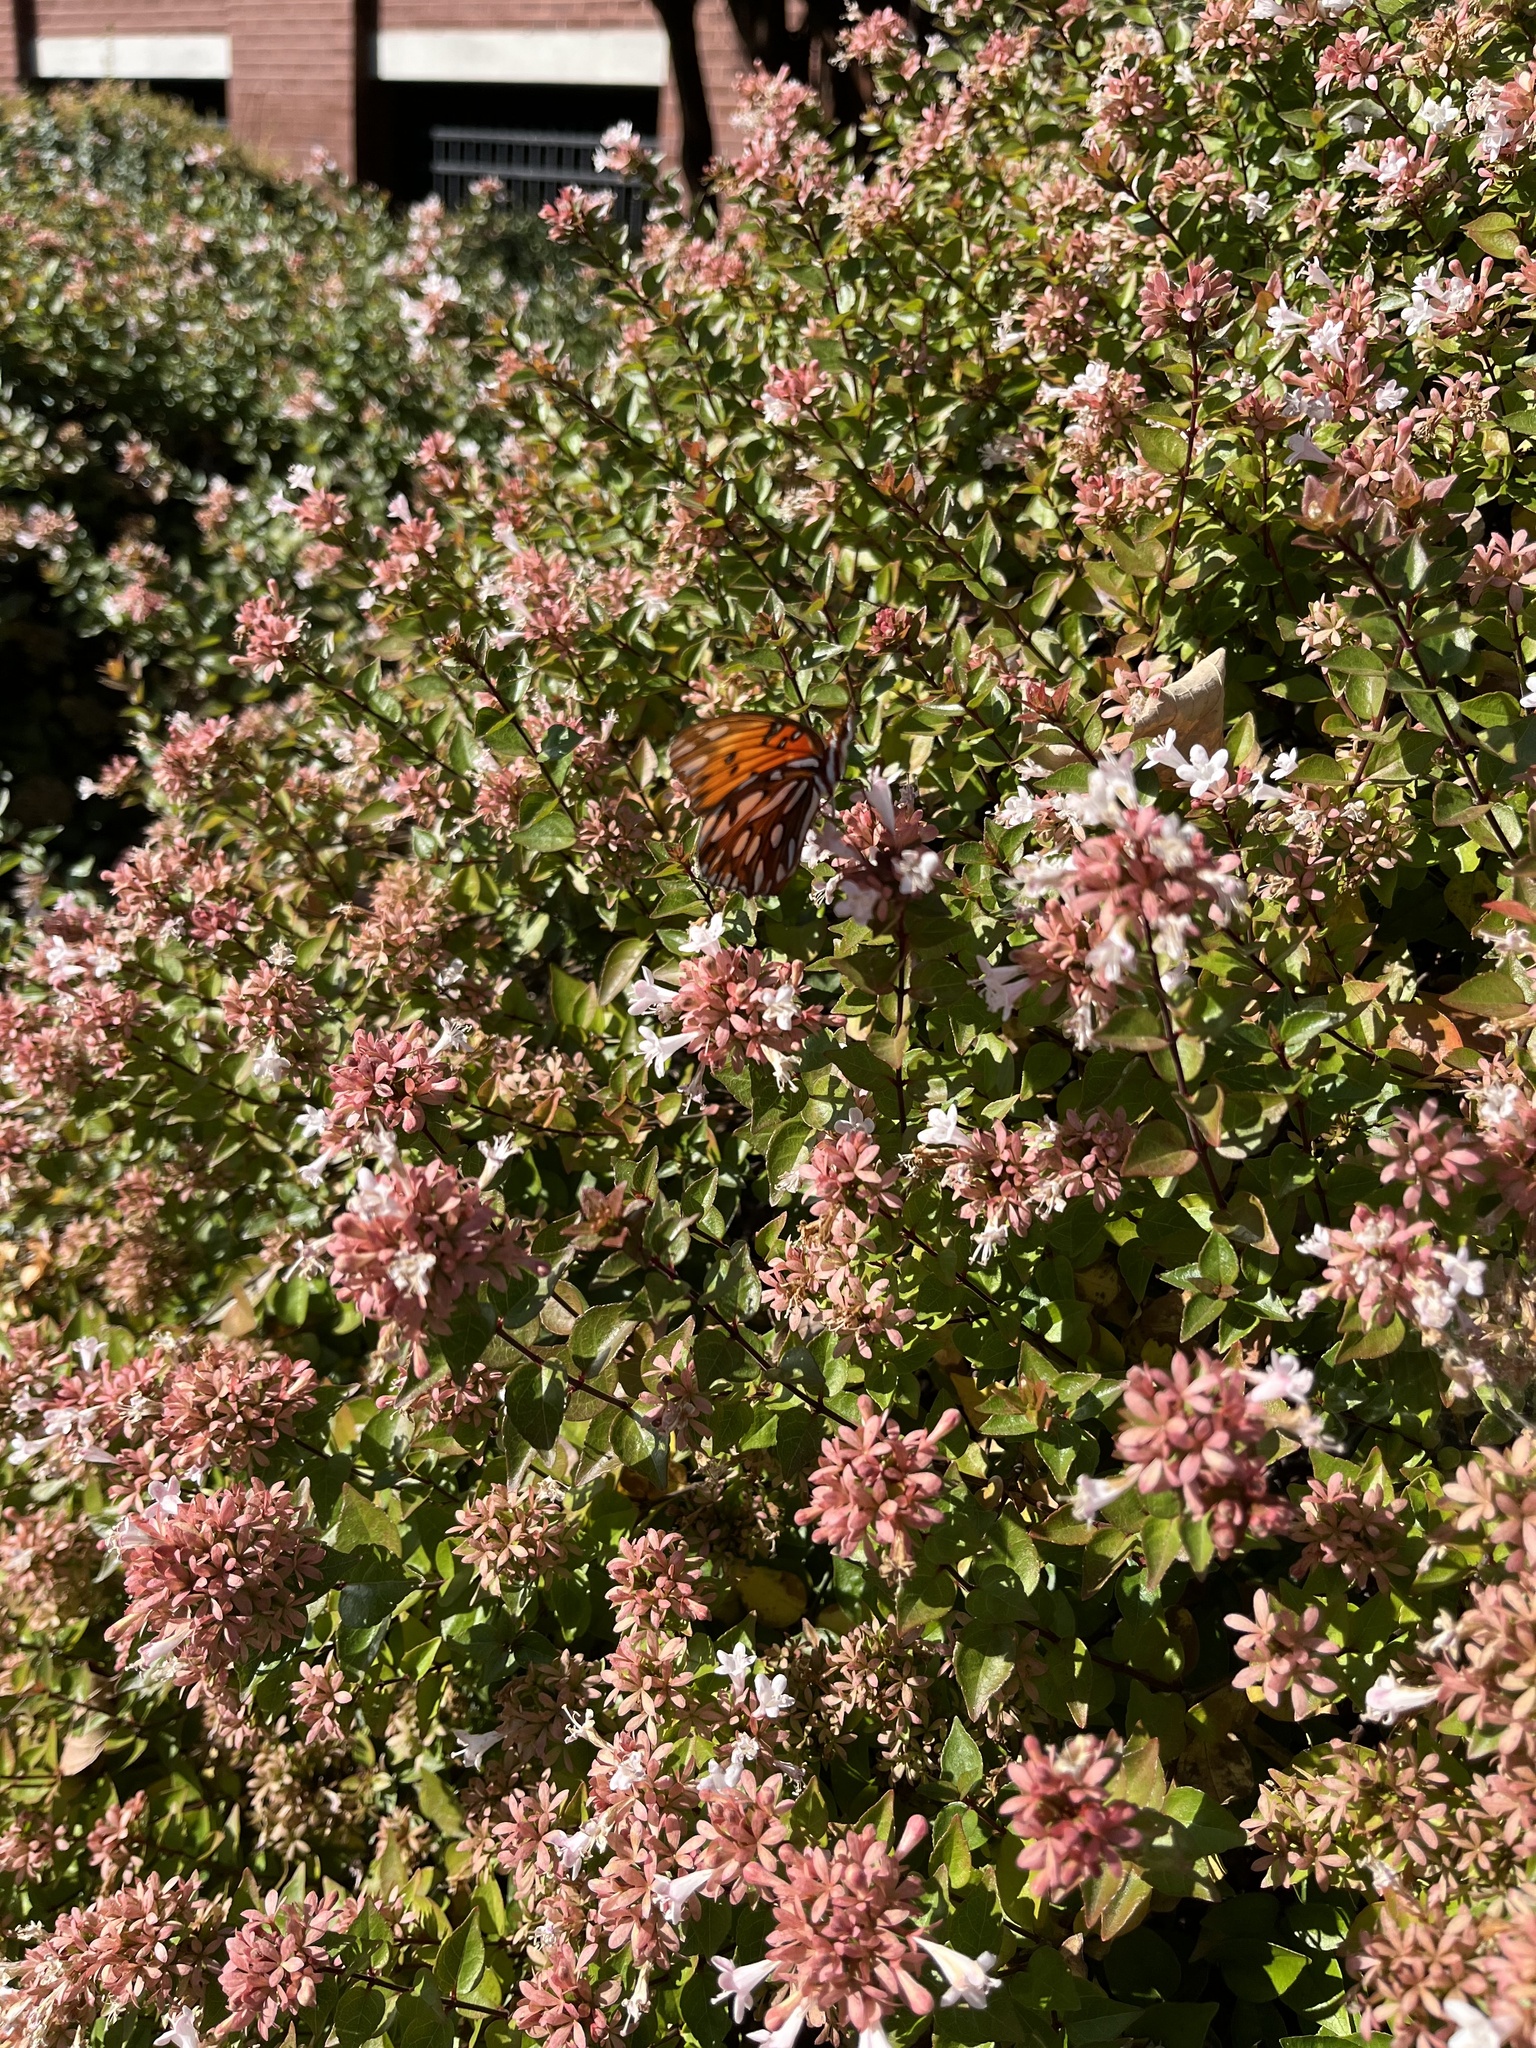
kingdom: Animalia
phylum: Arthropoda
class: Insecta
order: Lepidoptera
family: Nymphalidae
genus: Dione
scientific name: Dione vanillae
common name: Gulf fritillary
